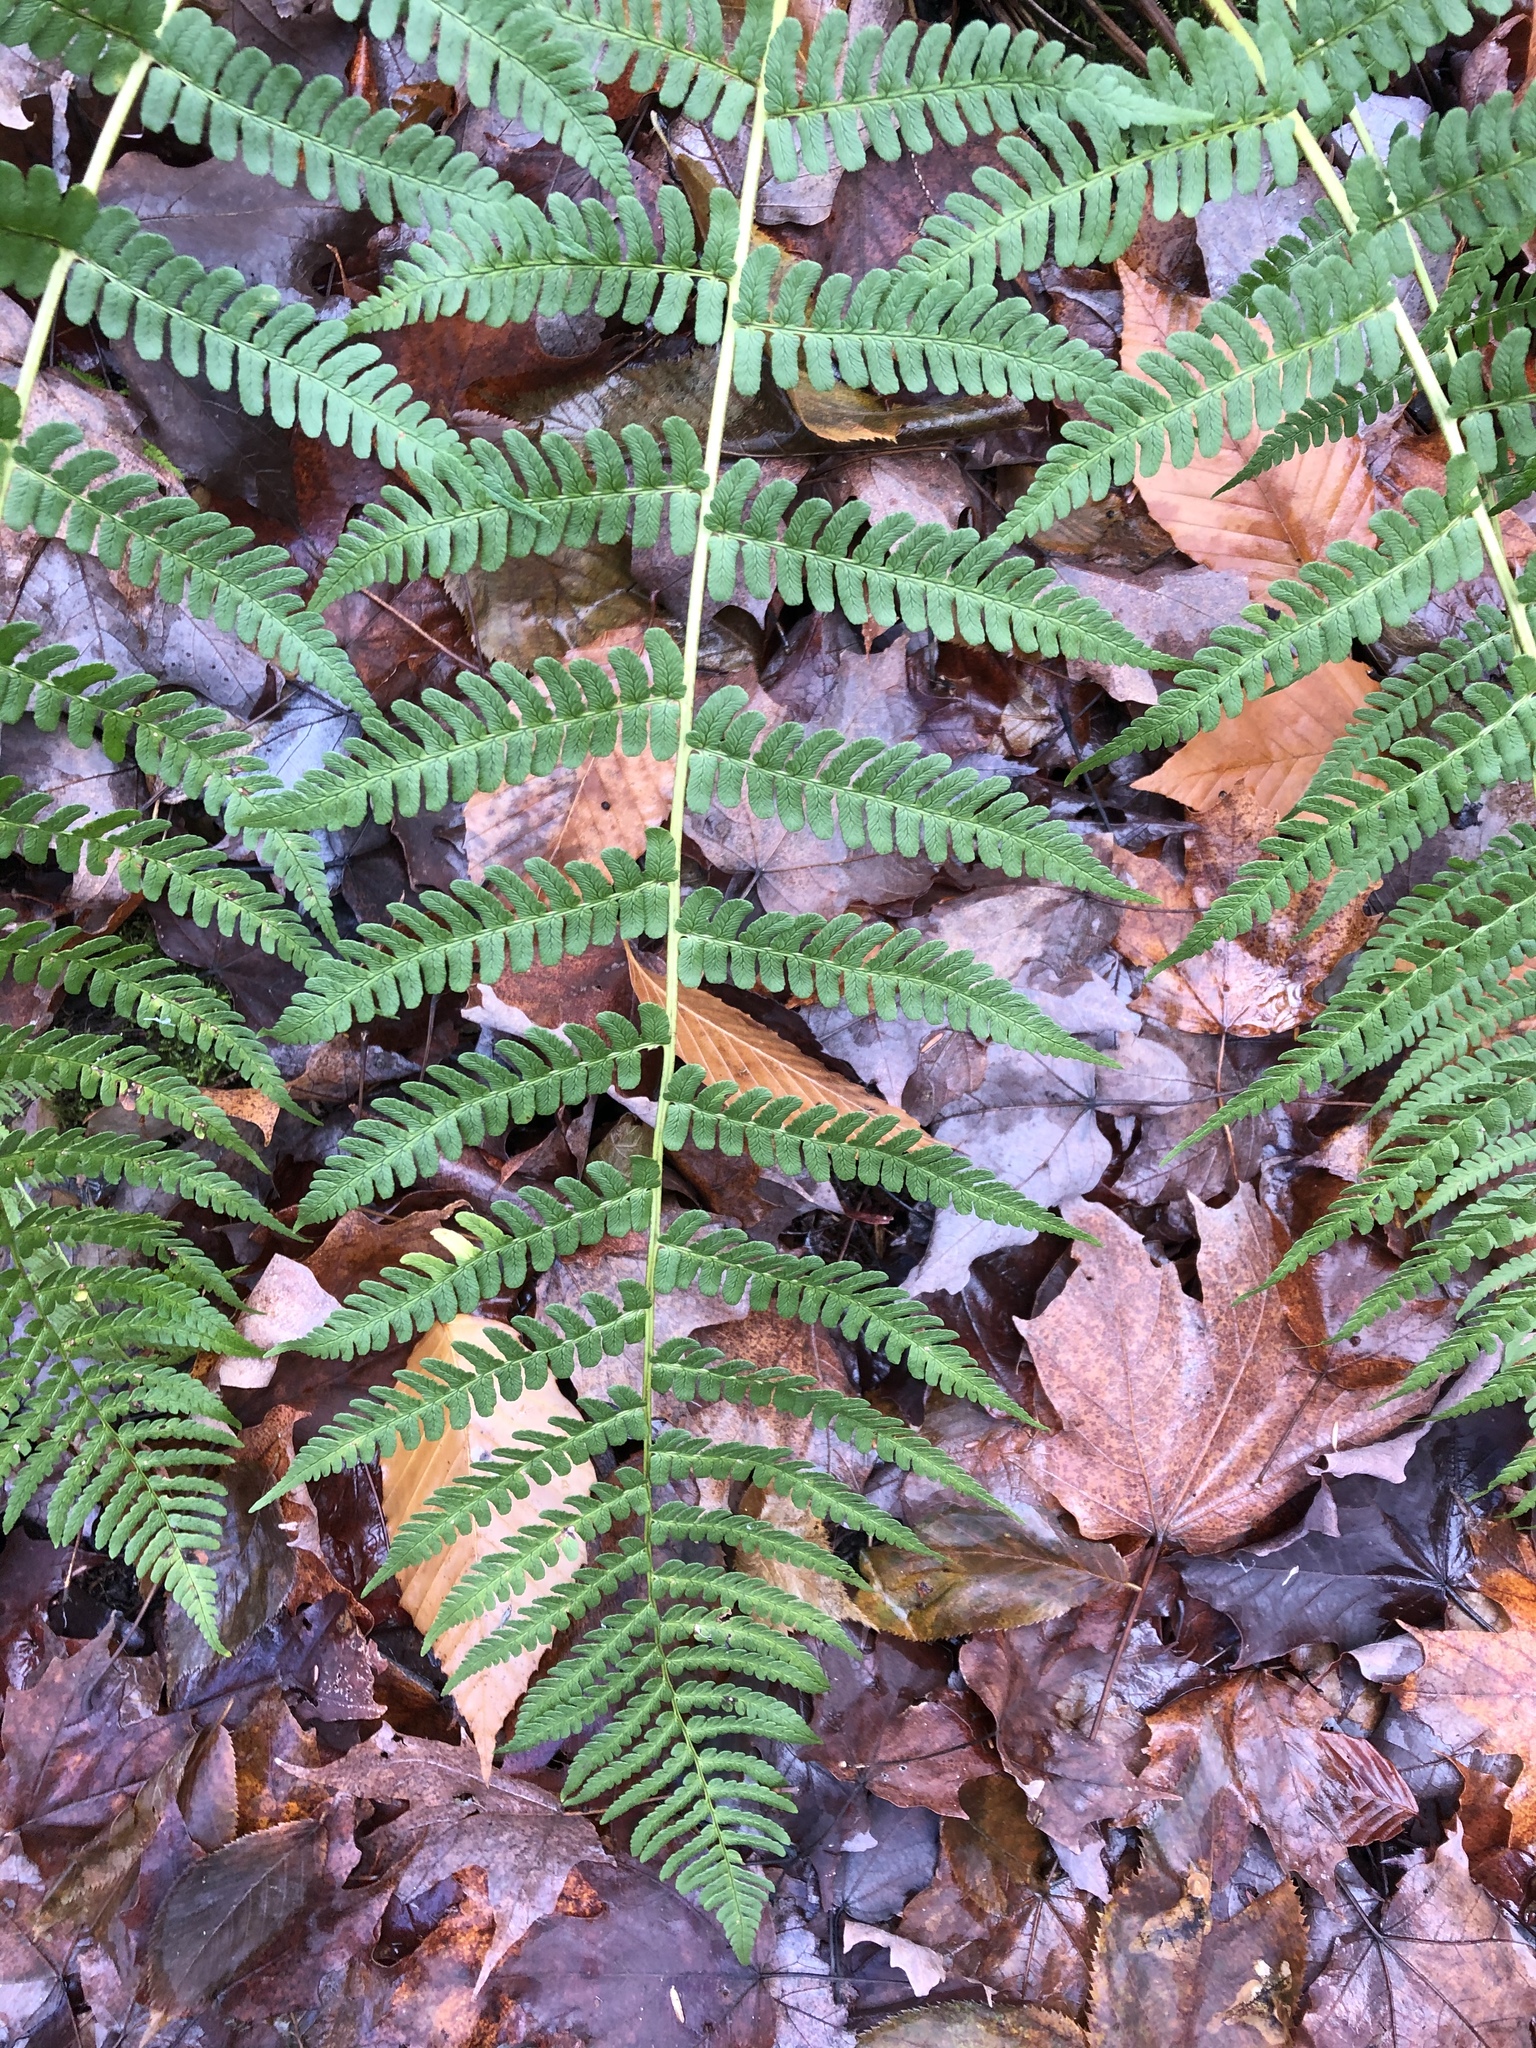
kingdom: Plantae
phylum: Tracheophyta
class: Polypodiopsida
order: Polypodiales
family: Dryopteridaceae
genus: Dryopteris
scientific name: Dryopteris marginalis
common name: Marginal wood fern
